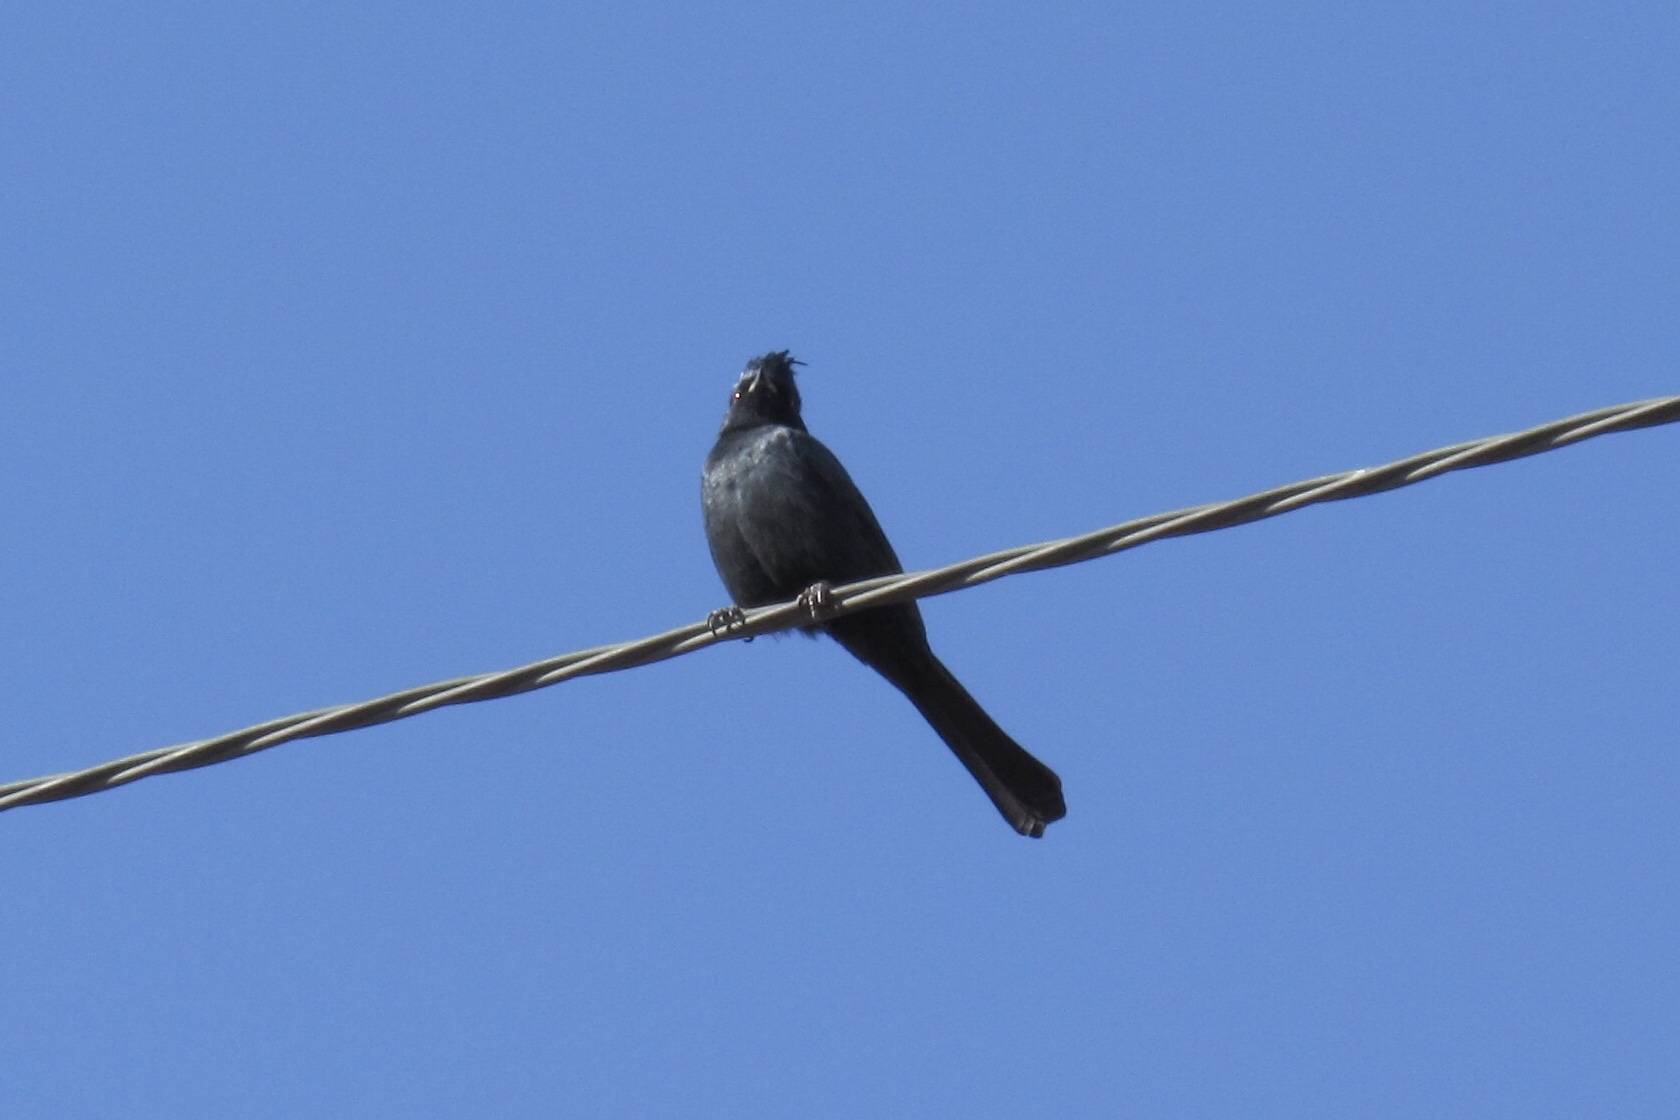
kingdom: Animalia
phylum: Chordata
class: Aves
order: Passeriformes
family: Ptilogonatidae
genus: Phainopepla
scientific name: Phainopepla nitens
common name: Phainopepla
